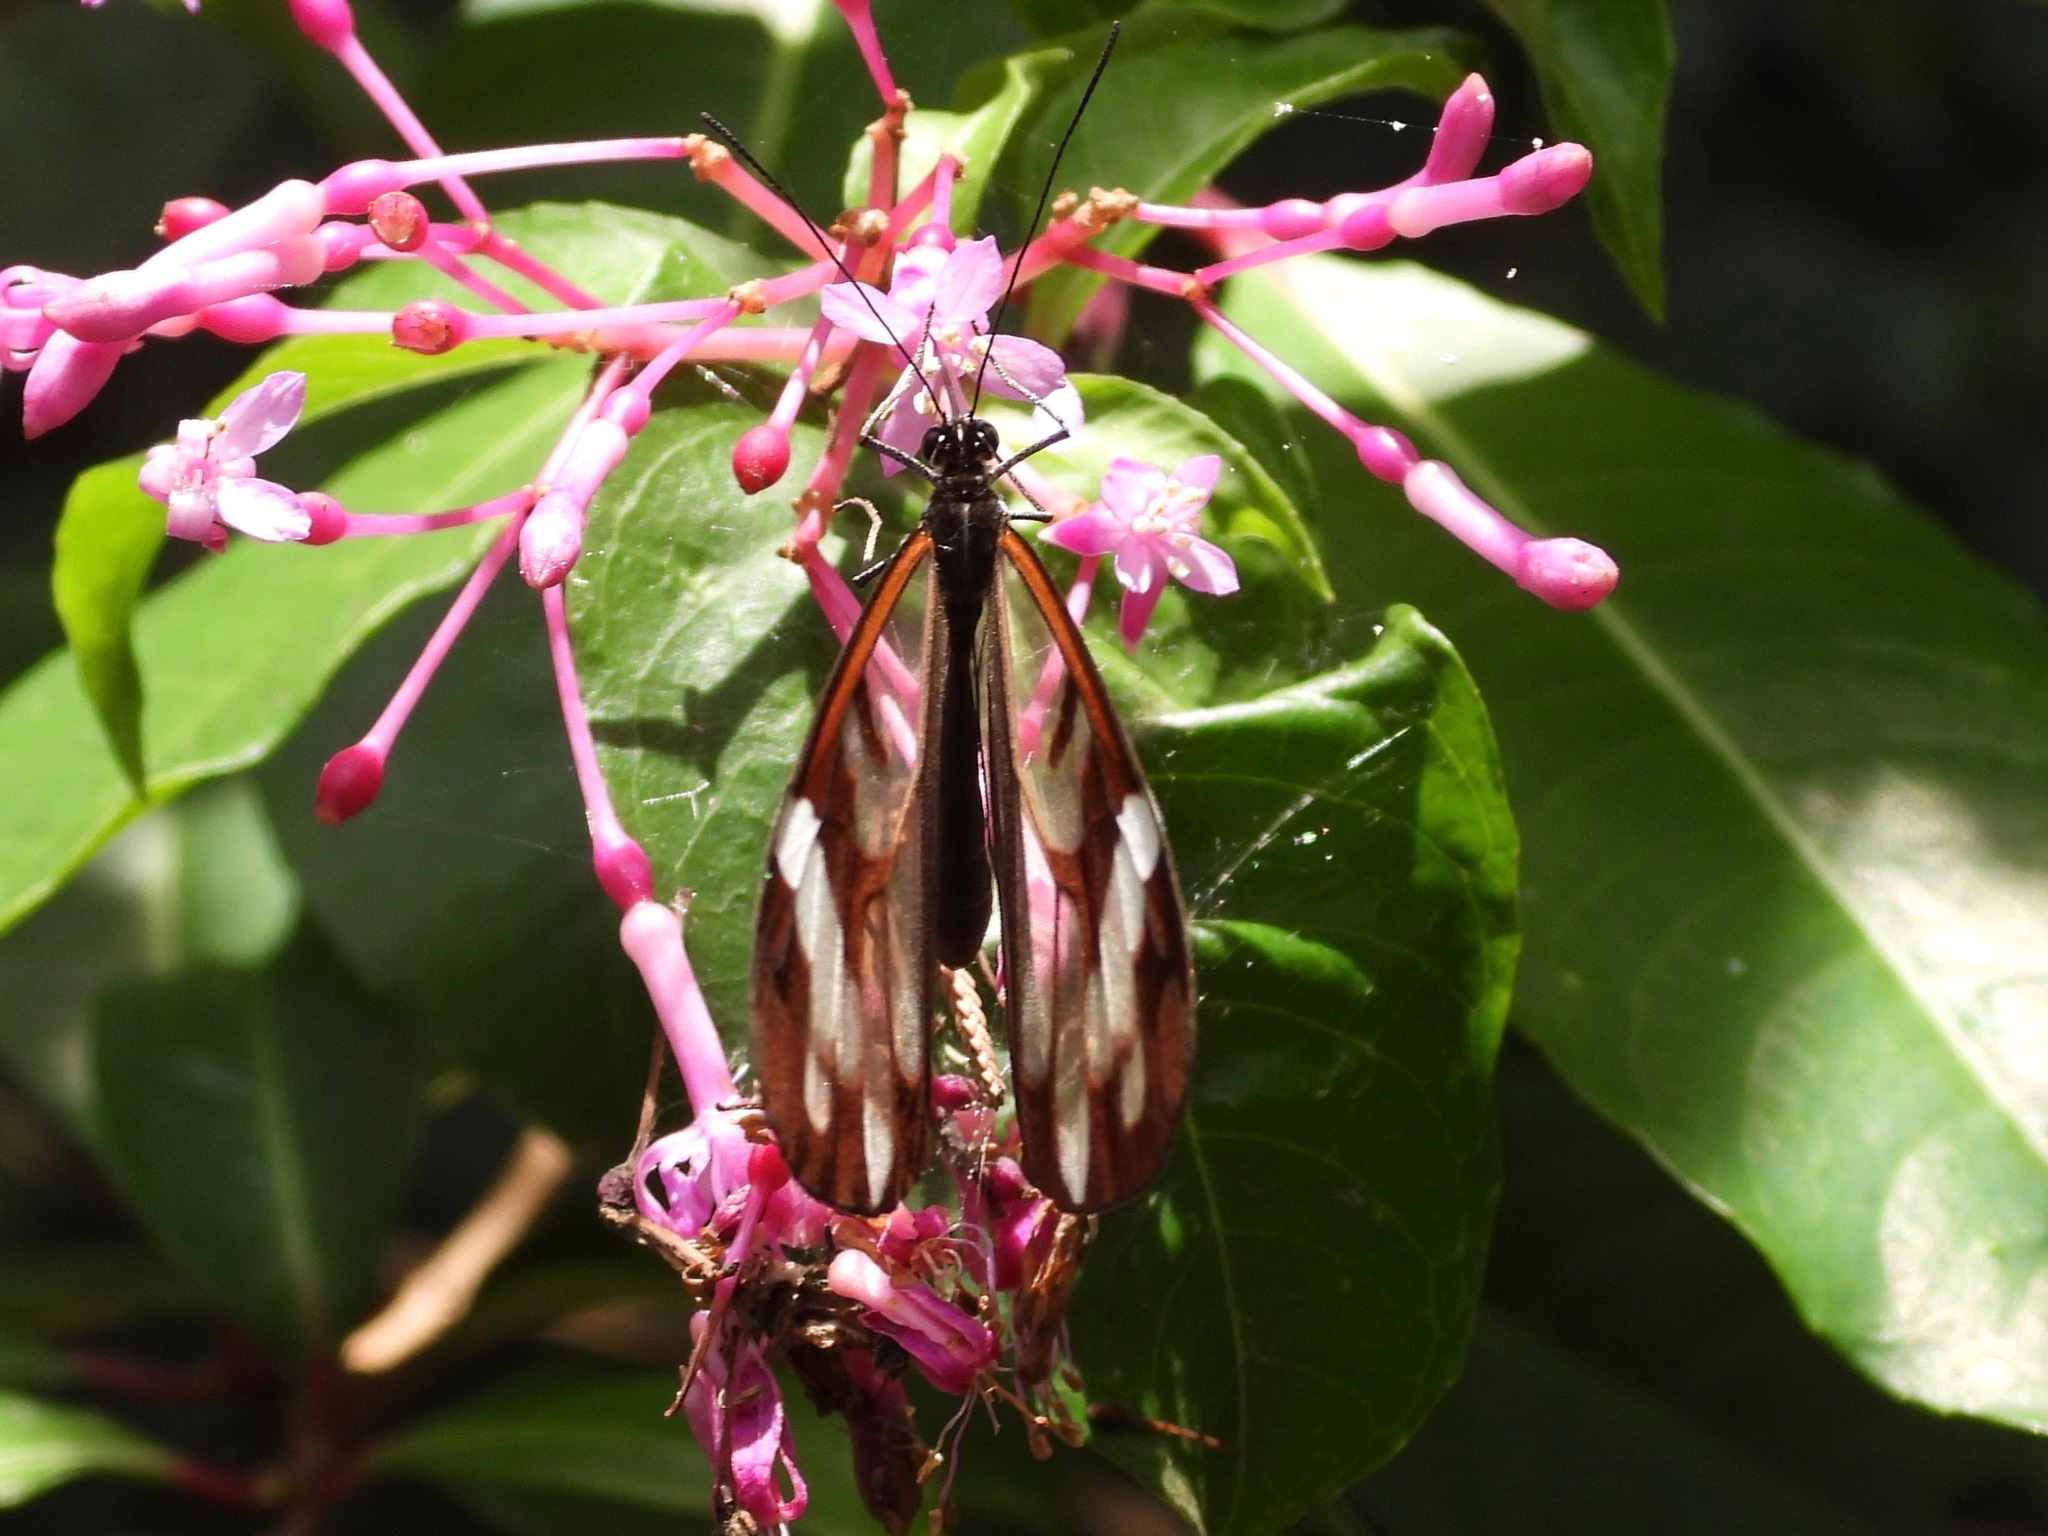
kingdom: Animalia
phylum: Arthropoda
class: Insecta
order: Lepidoptera
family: Nymphalidae
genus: Oleria
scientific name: Oleria zea
